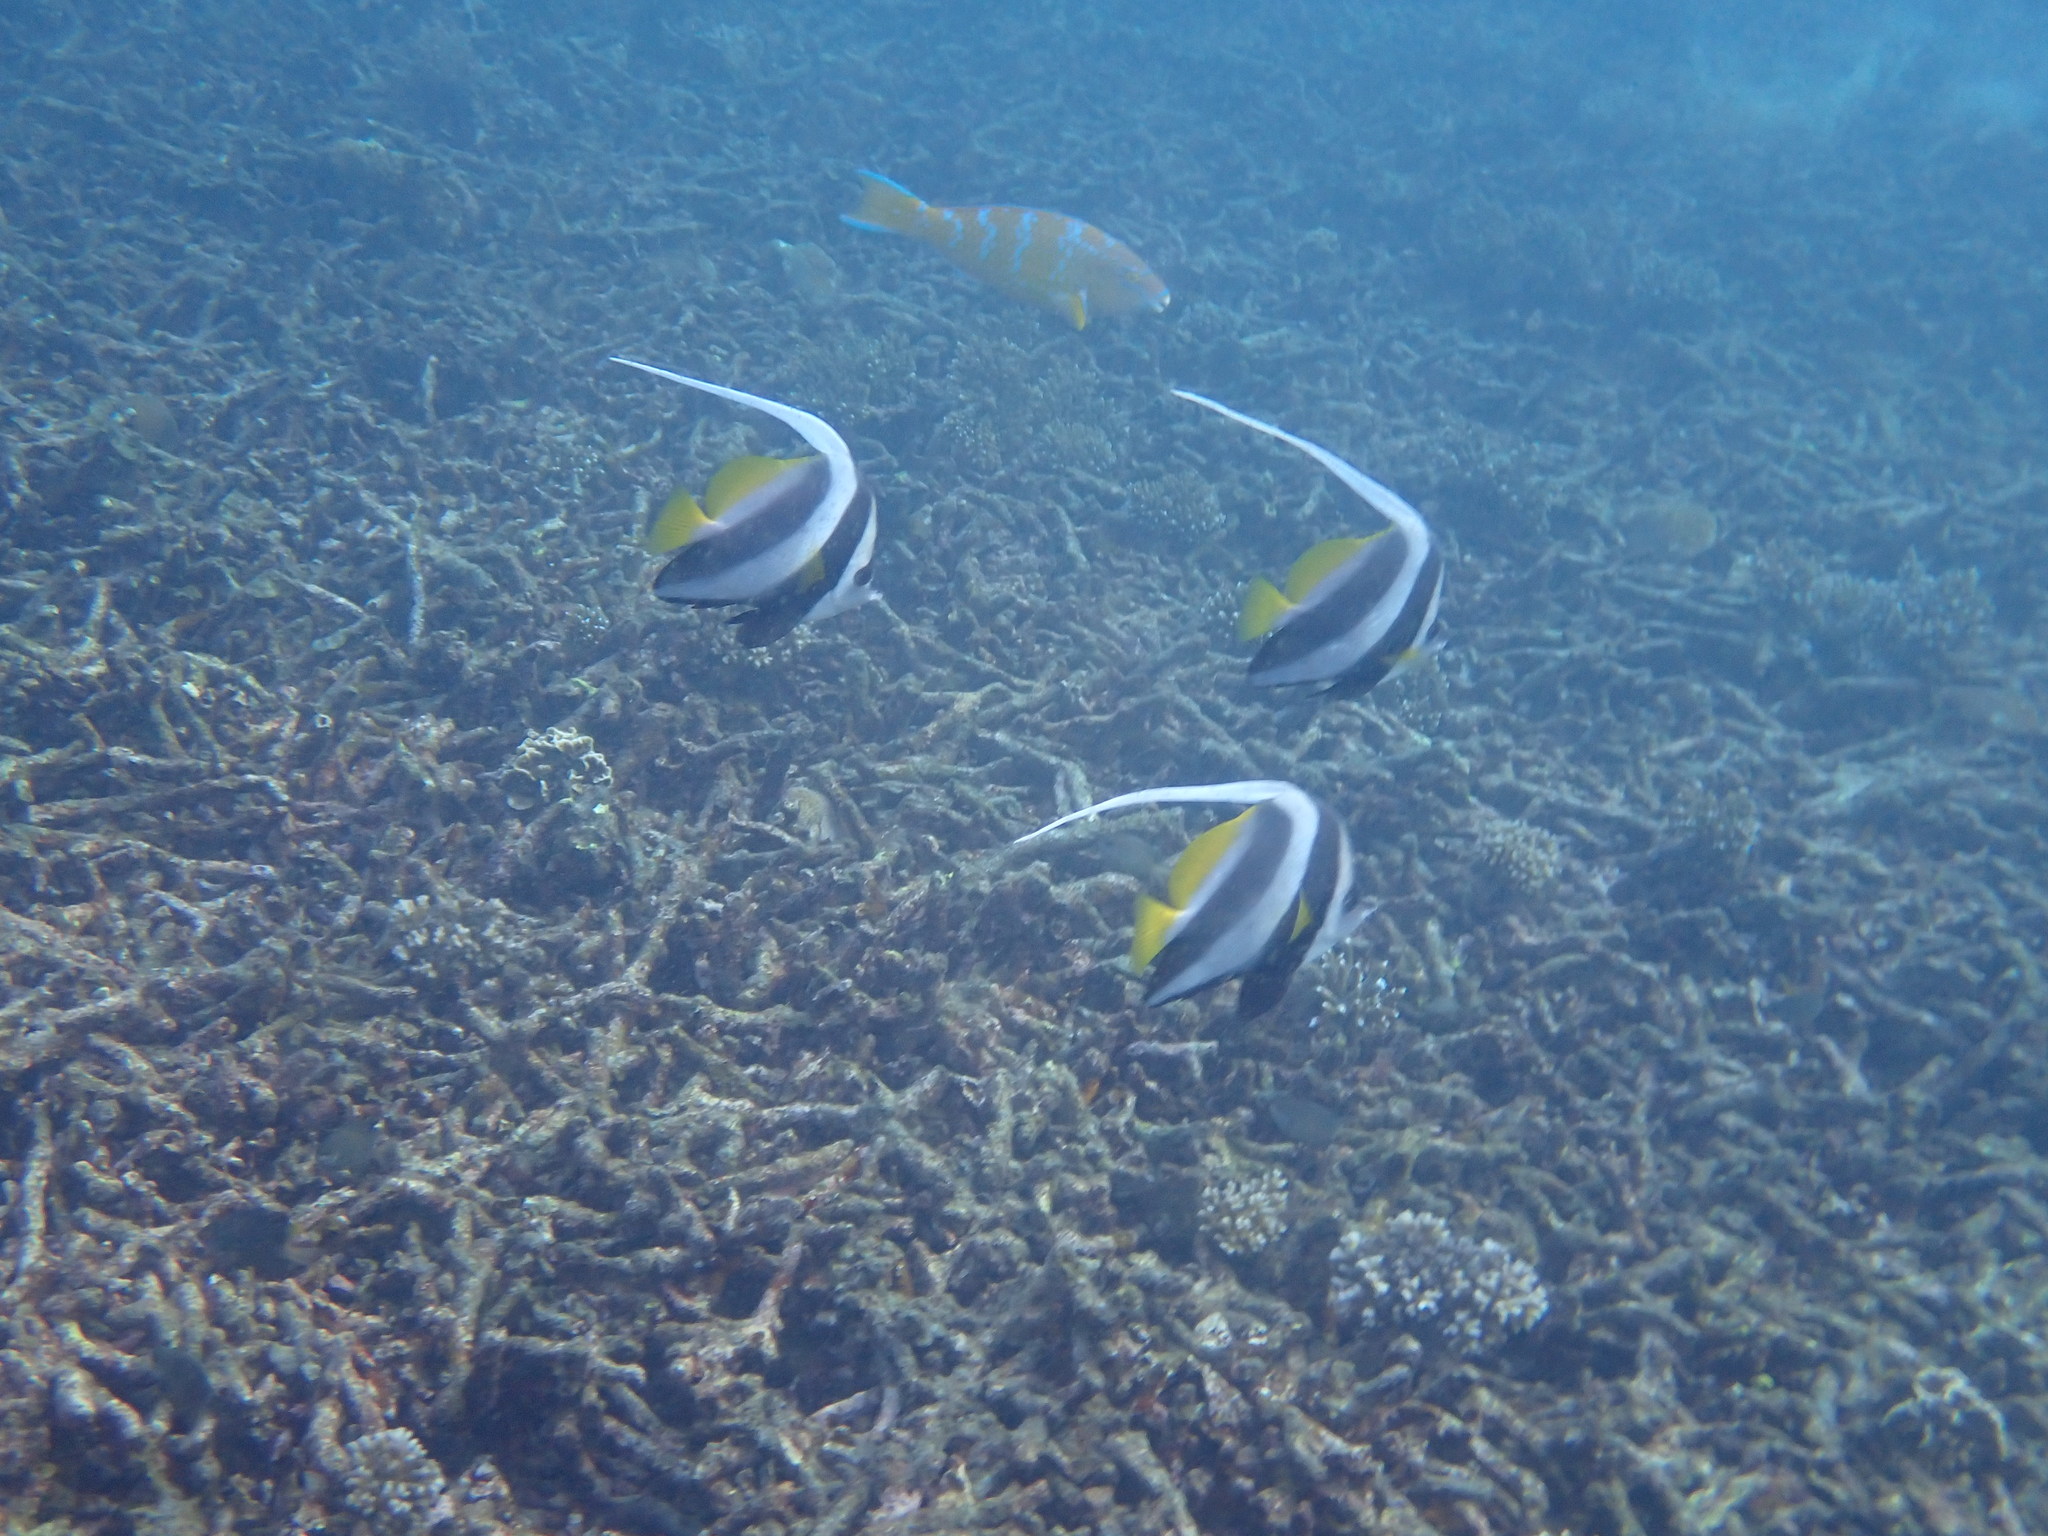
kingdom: Animalia
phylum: Chordata
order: Perciformes
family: Chaetodontidae
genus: Heniochus
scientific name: Heniochus acuminatus
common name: Pennant coralfish
